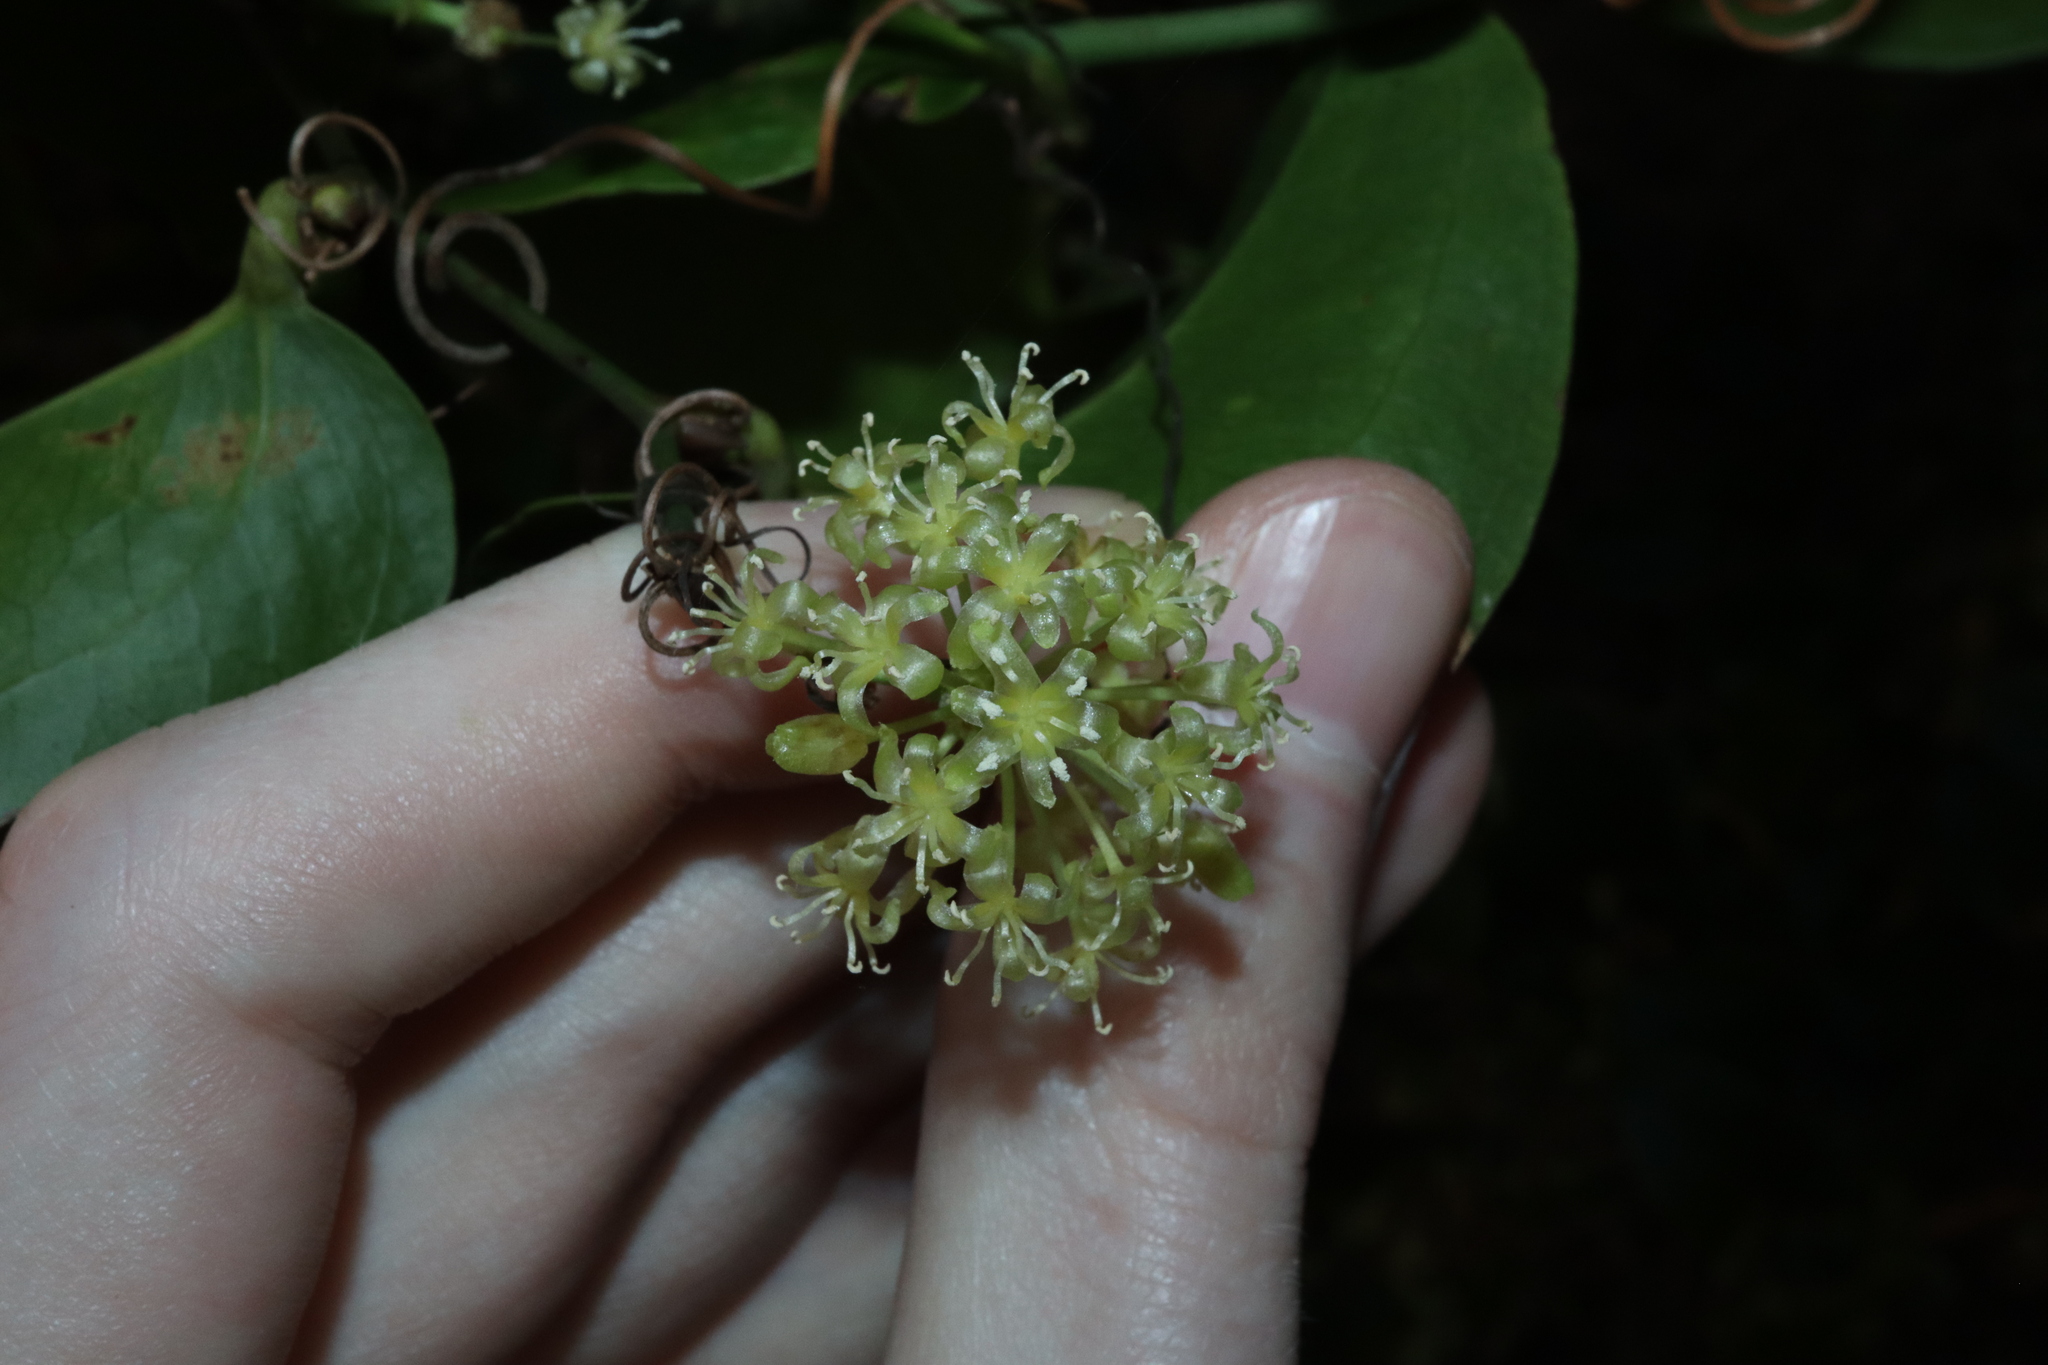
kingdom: Plantae
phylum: Tracheophyta
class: Liliopsida
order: Liliales
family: Smilacaceae
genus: Smilax
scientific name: Smilax australis
